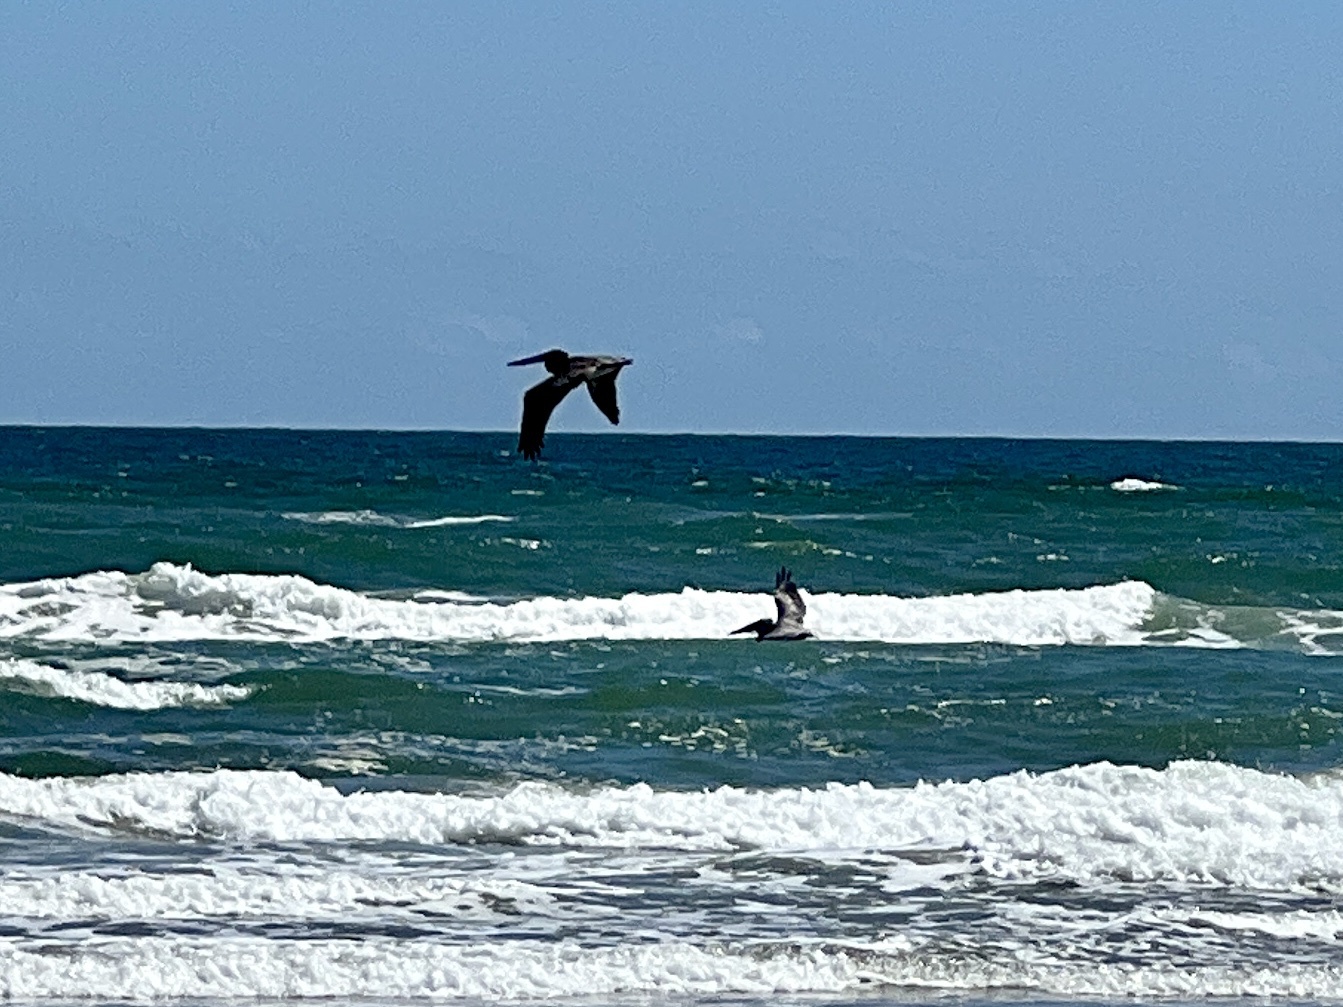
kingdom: Animalia
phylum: Chordata
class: Aves
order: Pelecaniformes
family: Pelecanidae
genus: Pelecanus
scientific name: Pelecanus occidentalis
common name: Brown pelican
